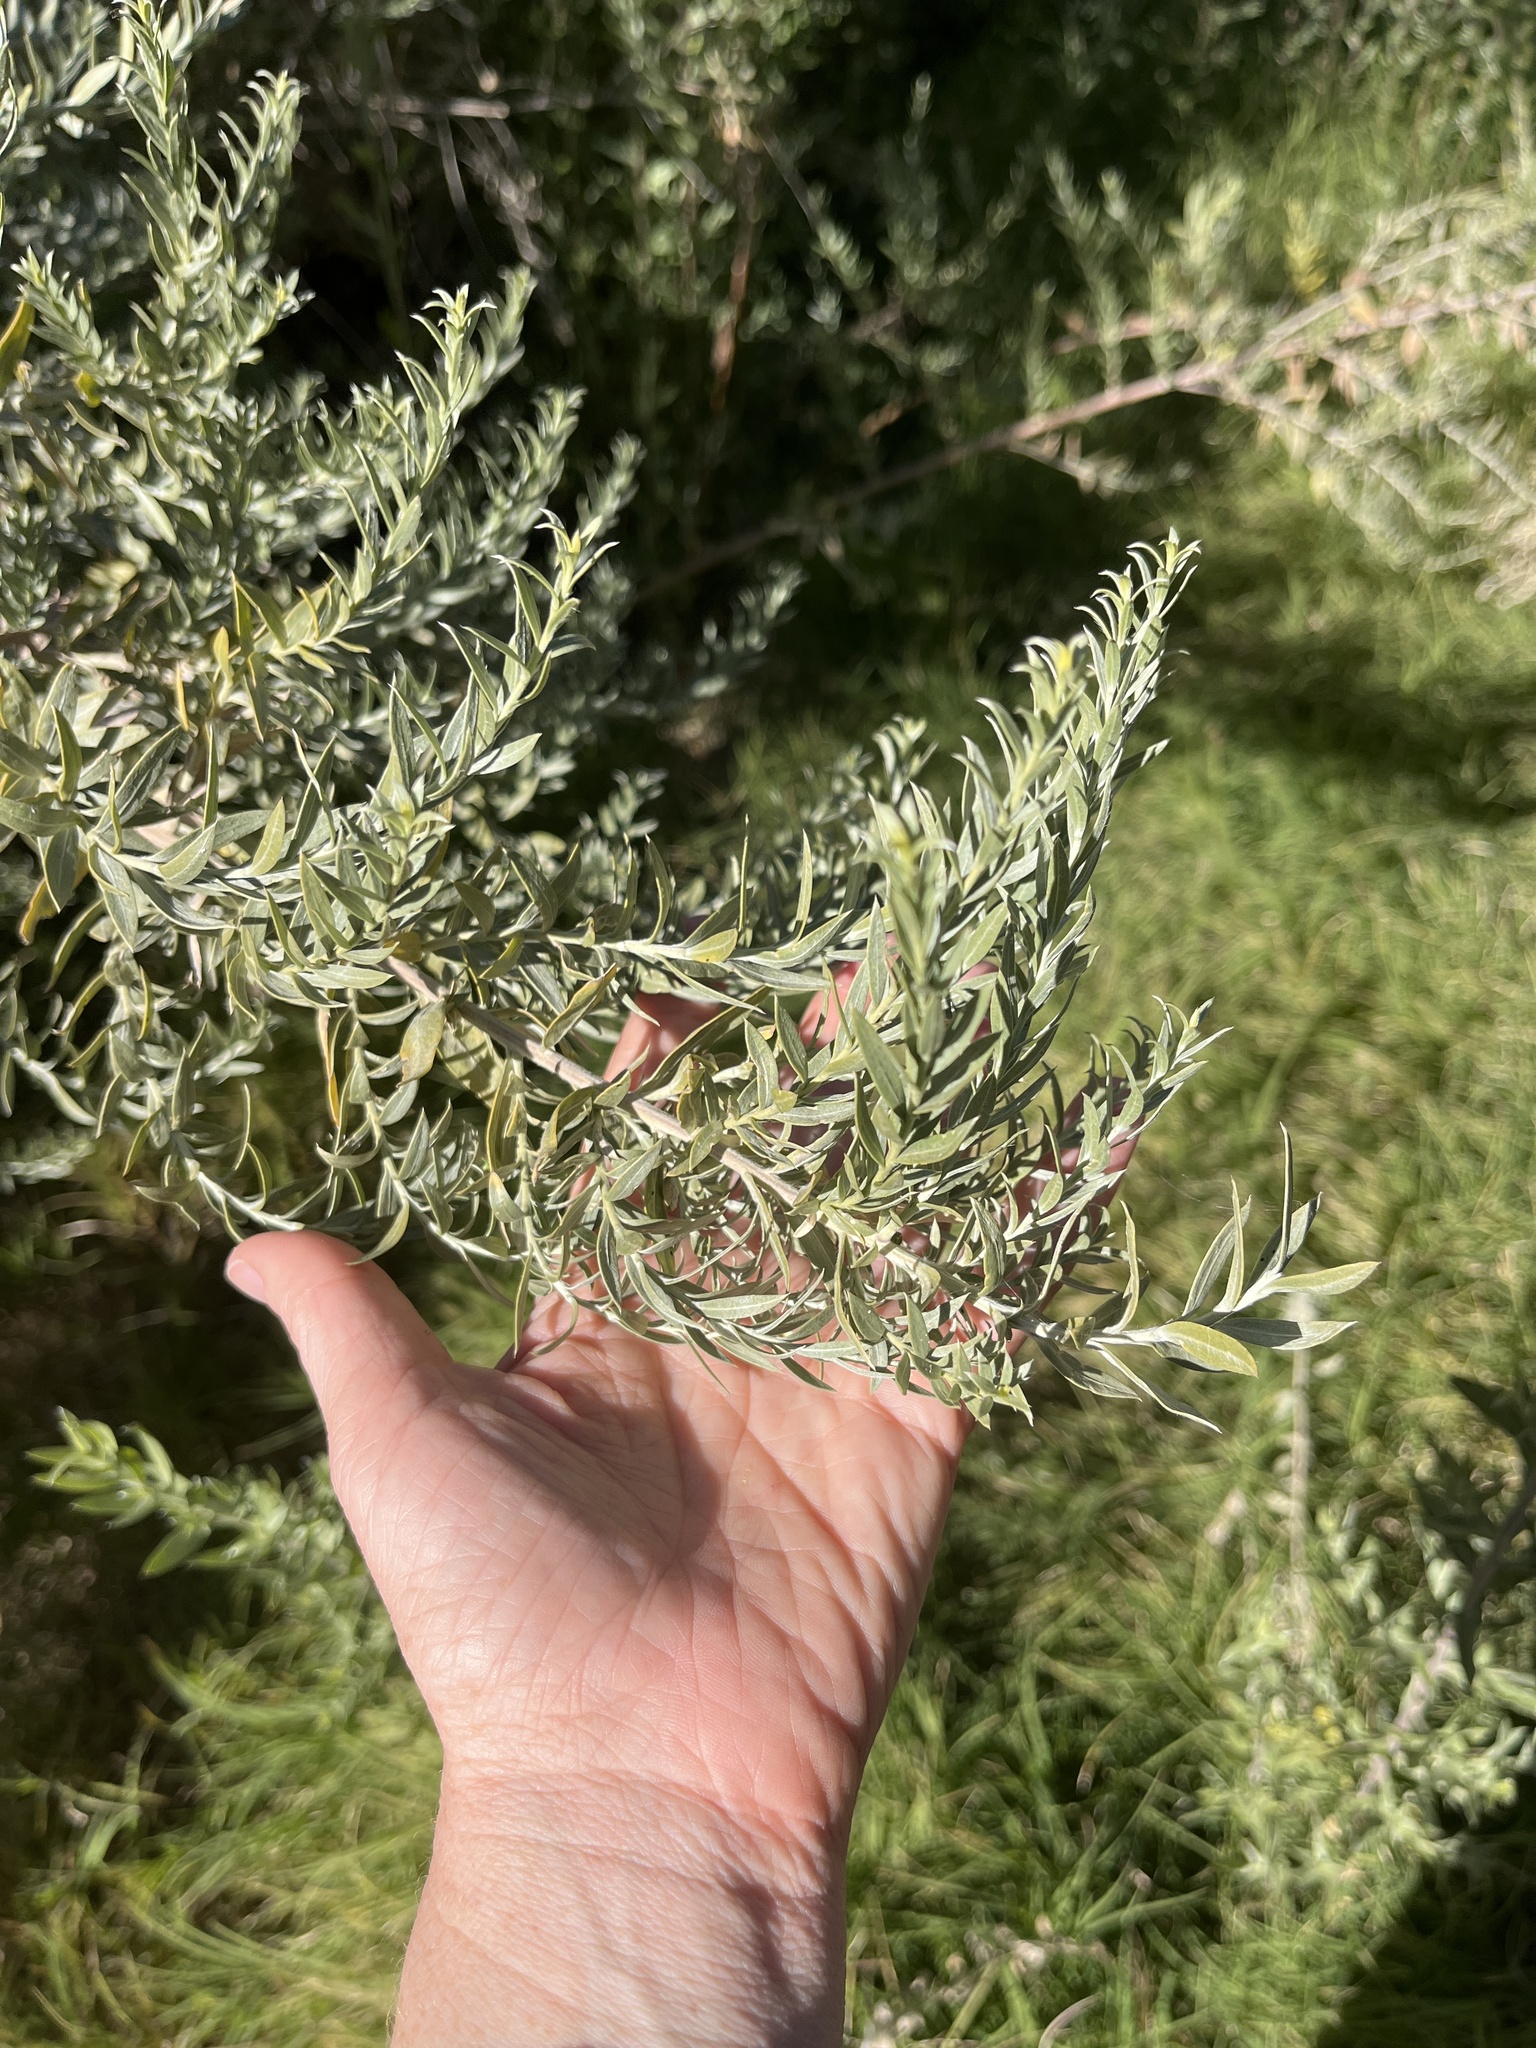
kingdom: Plantae
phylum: Tracheophyta
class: Magnoliopsida
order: Asterales
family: Asteraceae
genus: Pluchea
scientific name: Pluchea sericea
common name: Arrow-weed
